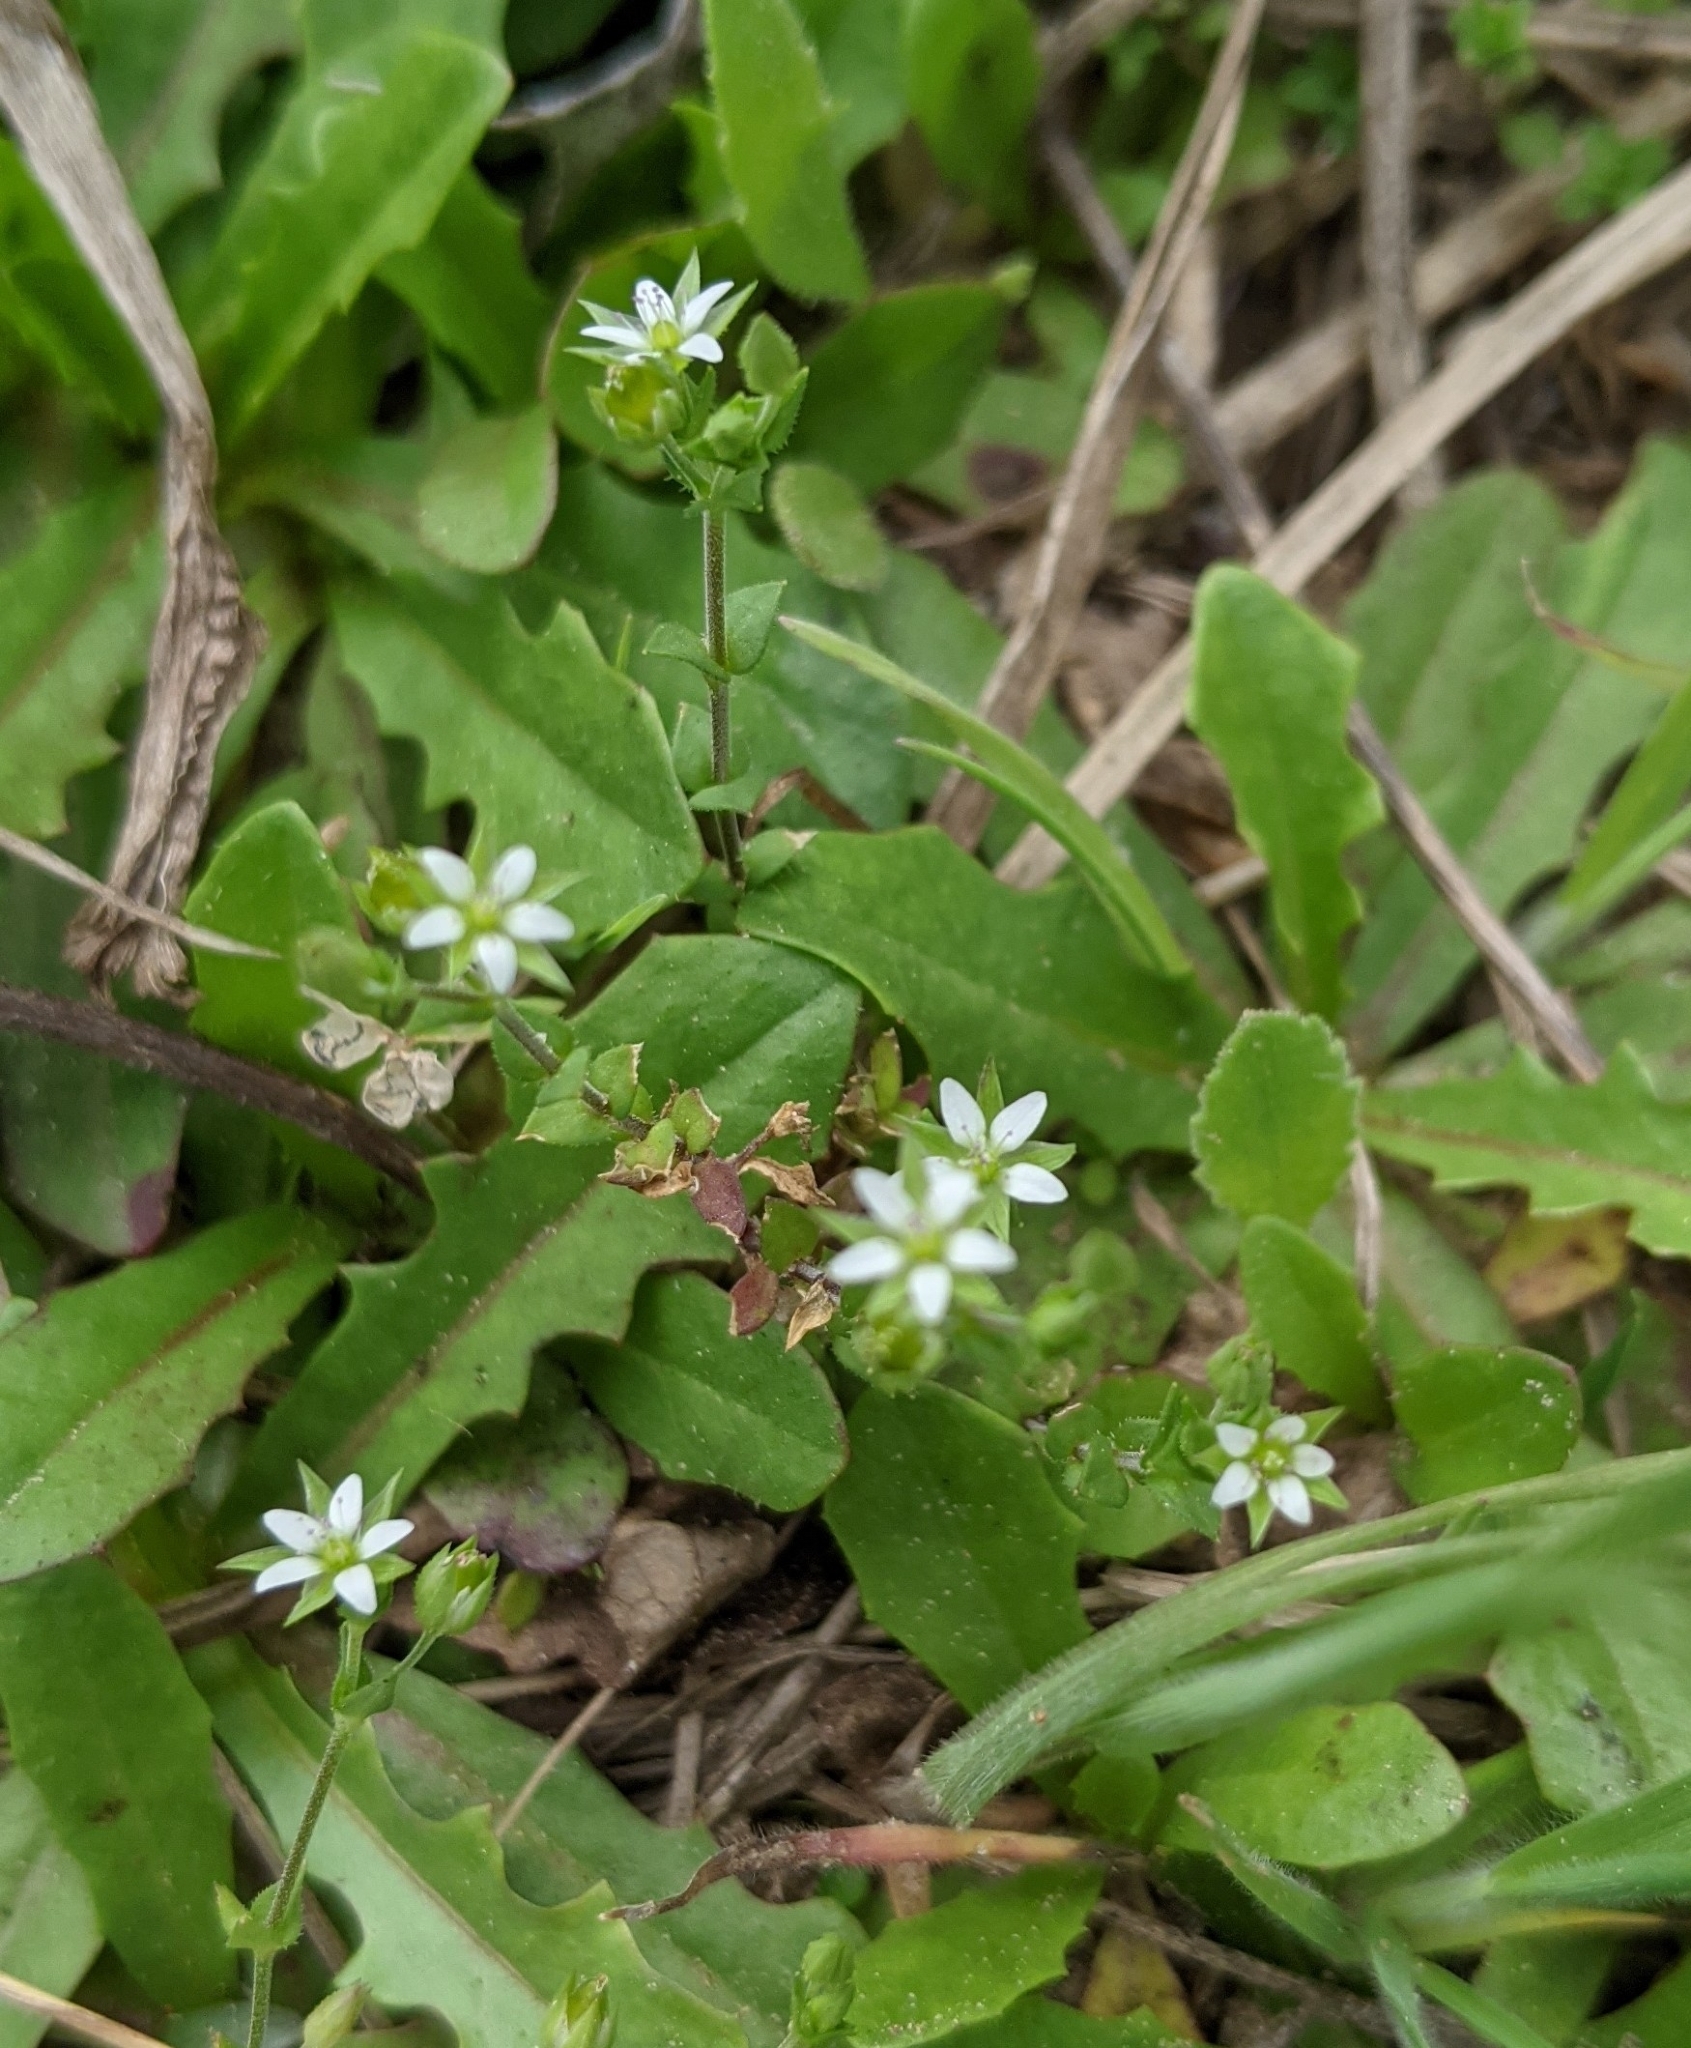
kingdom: Plantae
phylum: Tracheophyta
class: Magnoliopsida
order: Caryophyllales
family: Caryophyllaceae
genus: Arenaria
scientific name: Arenaria serpyllifolia
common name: Thyme-leaved sandwort
